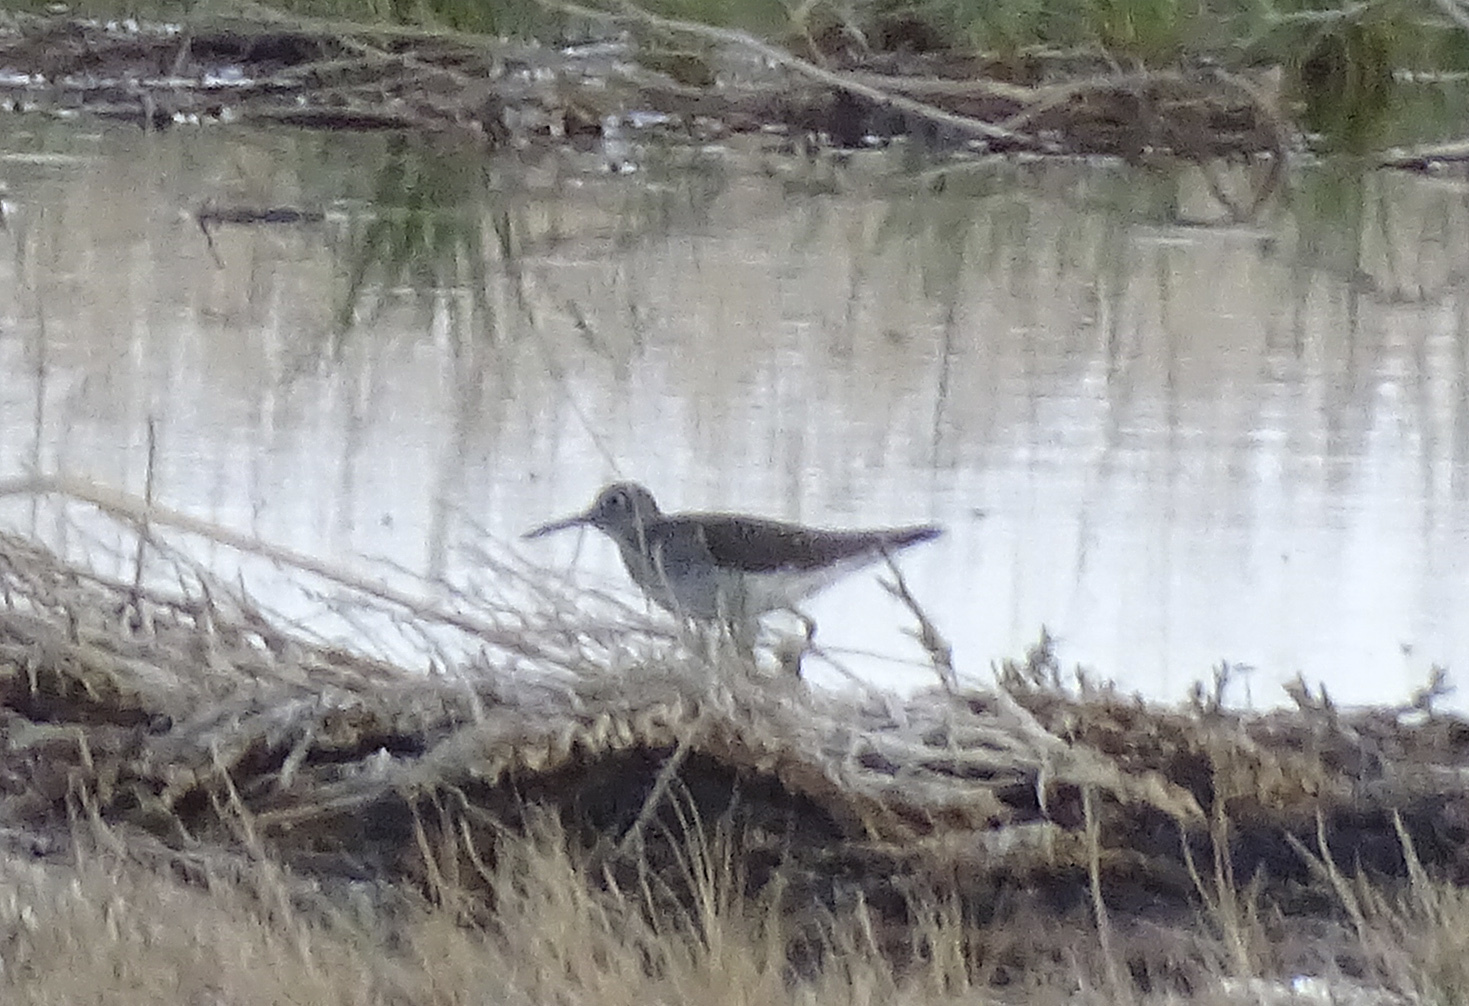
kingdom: Animalia
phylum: Chordata
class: Aves
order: Charadriiformes
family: Scolopacidae
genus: Tringa
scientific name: Tringa solitaria
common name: Solitary sandpiper
